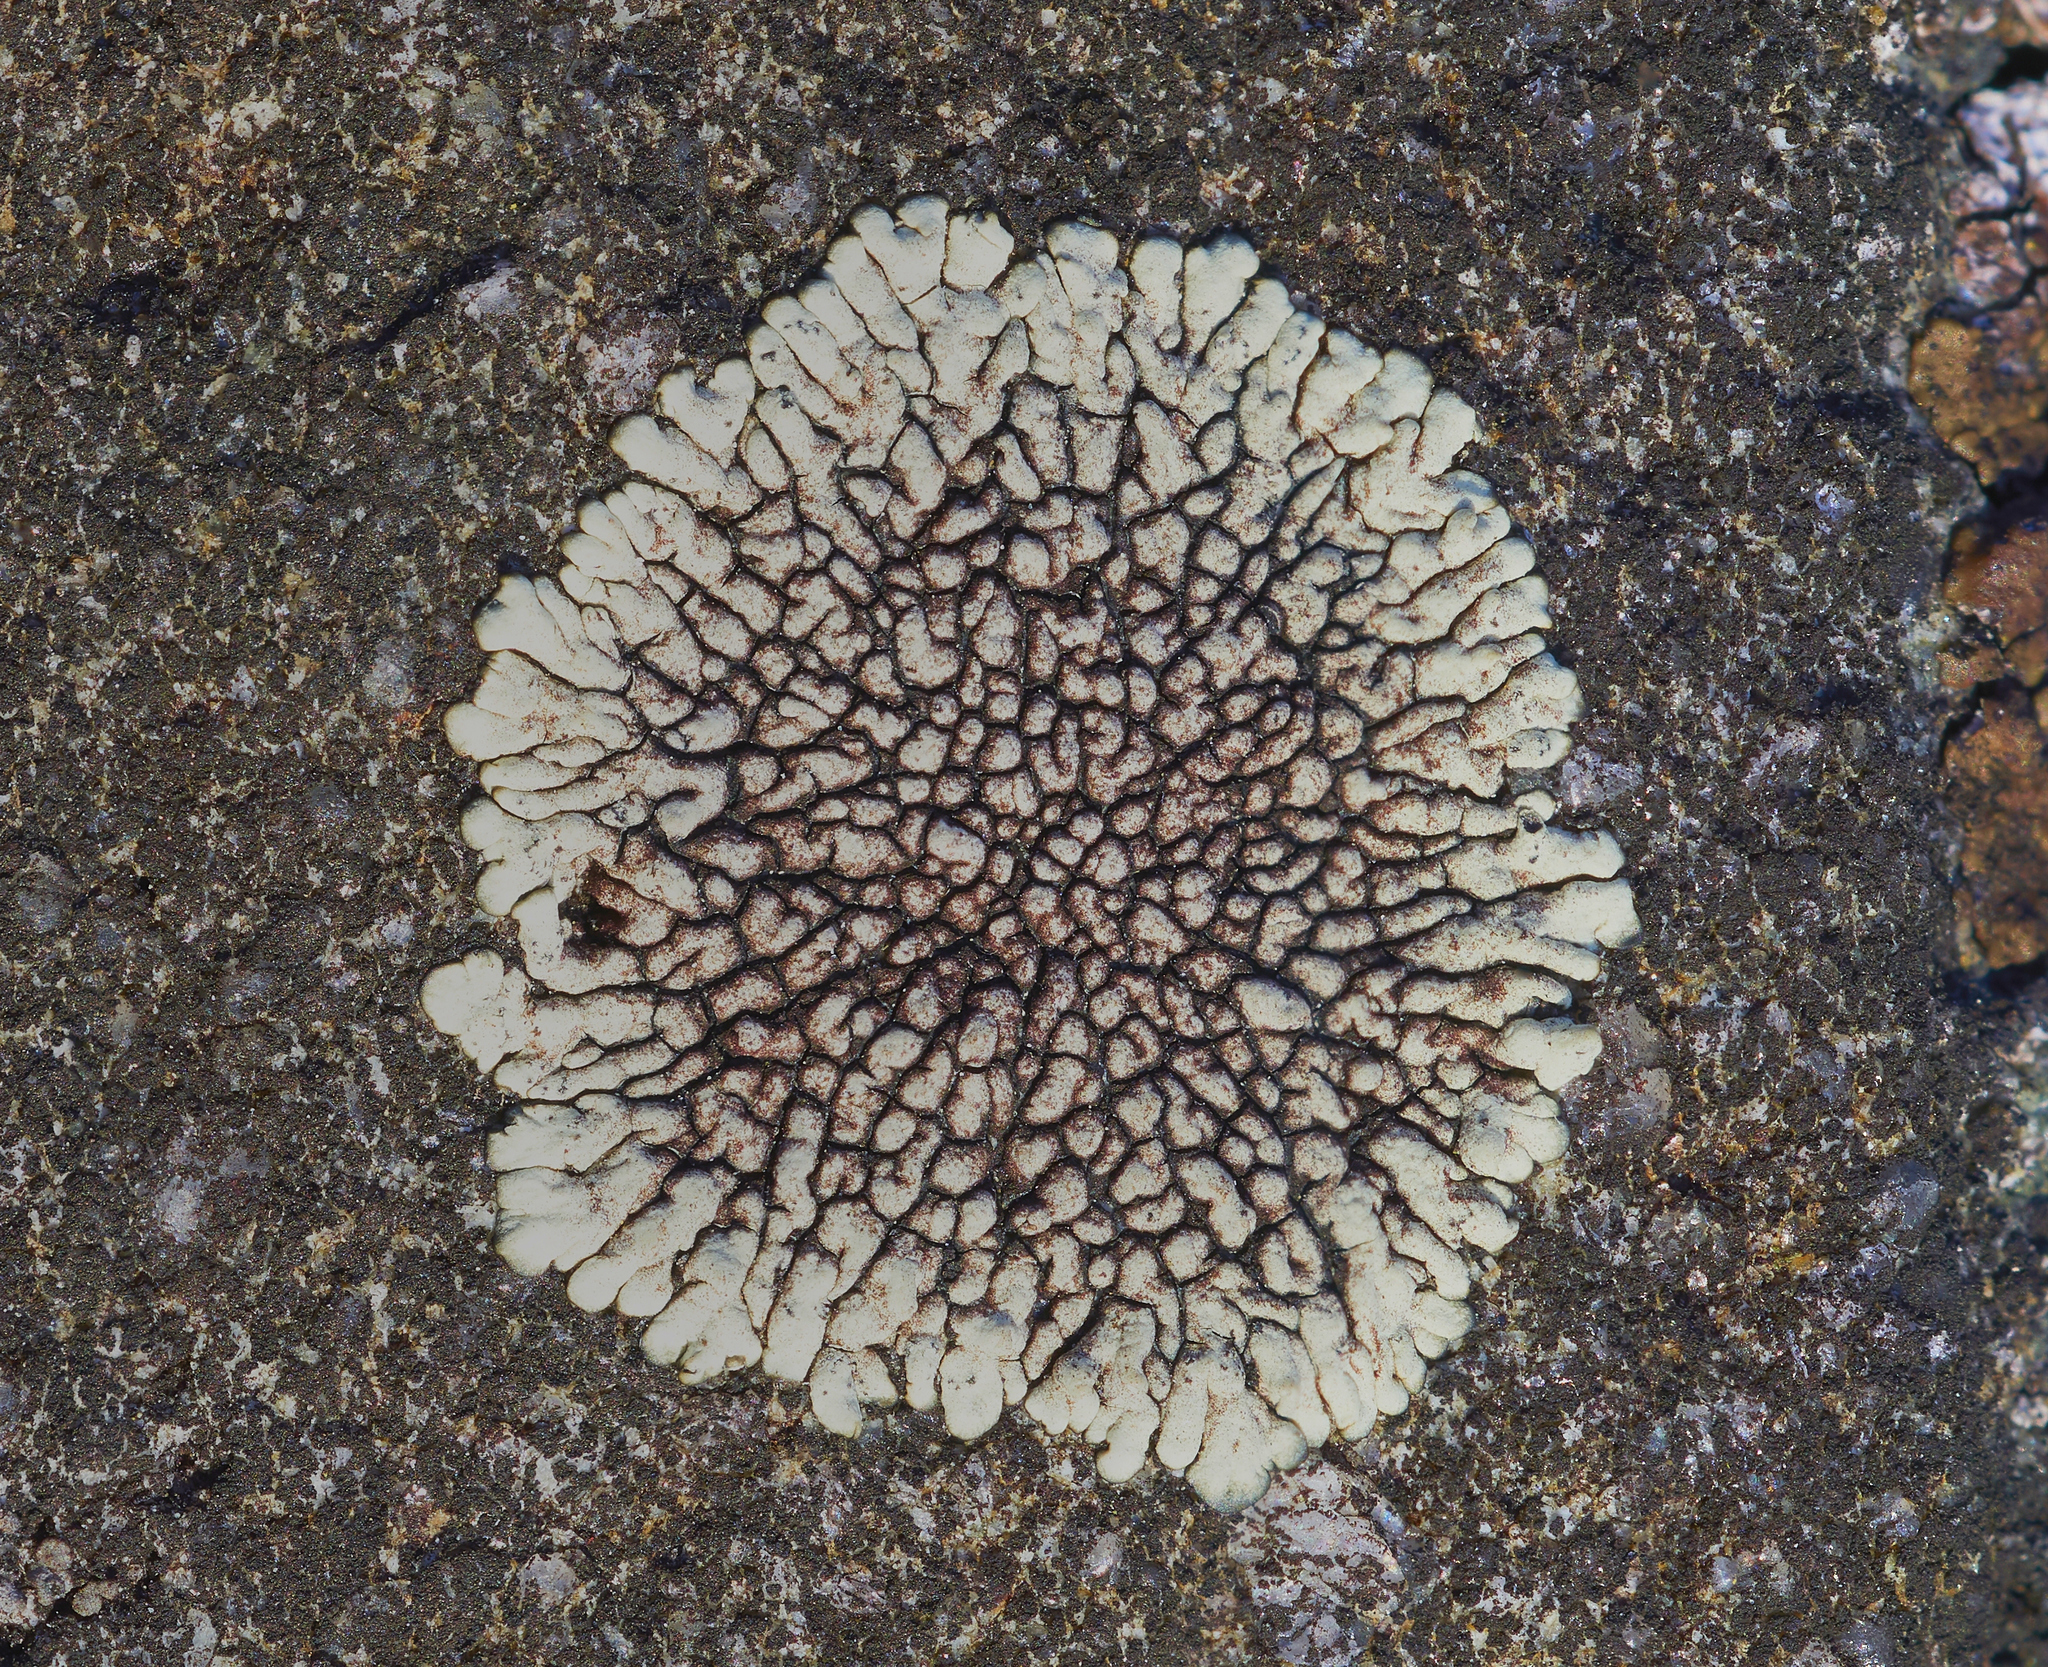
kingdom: Fungi
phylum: Ascomycota
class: Lecanoromycetes
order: Caliciales
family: Caliciaceae
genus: Dimelaena
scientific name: Dimelaena oreina
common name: Golden moonglow lichen
